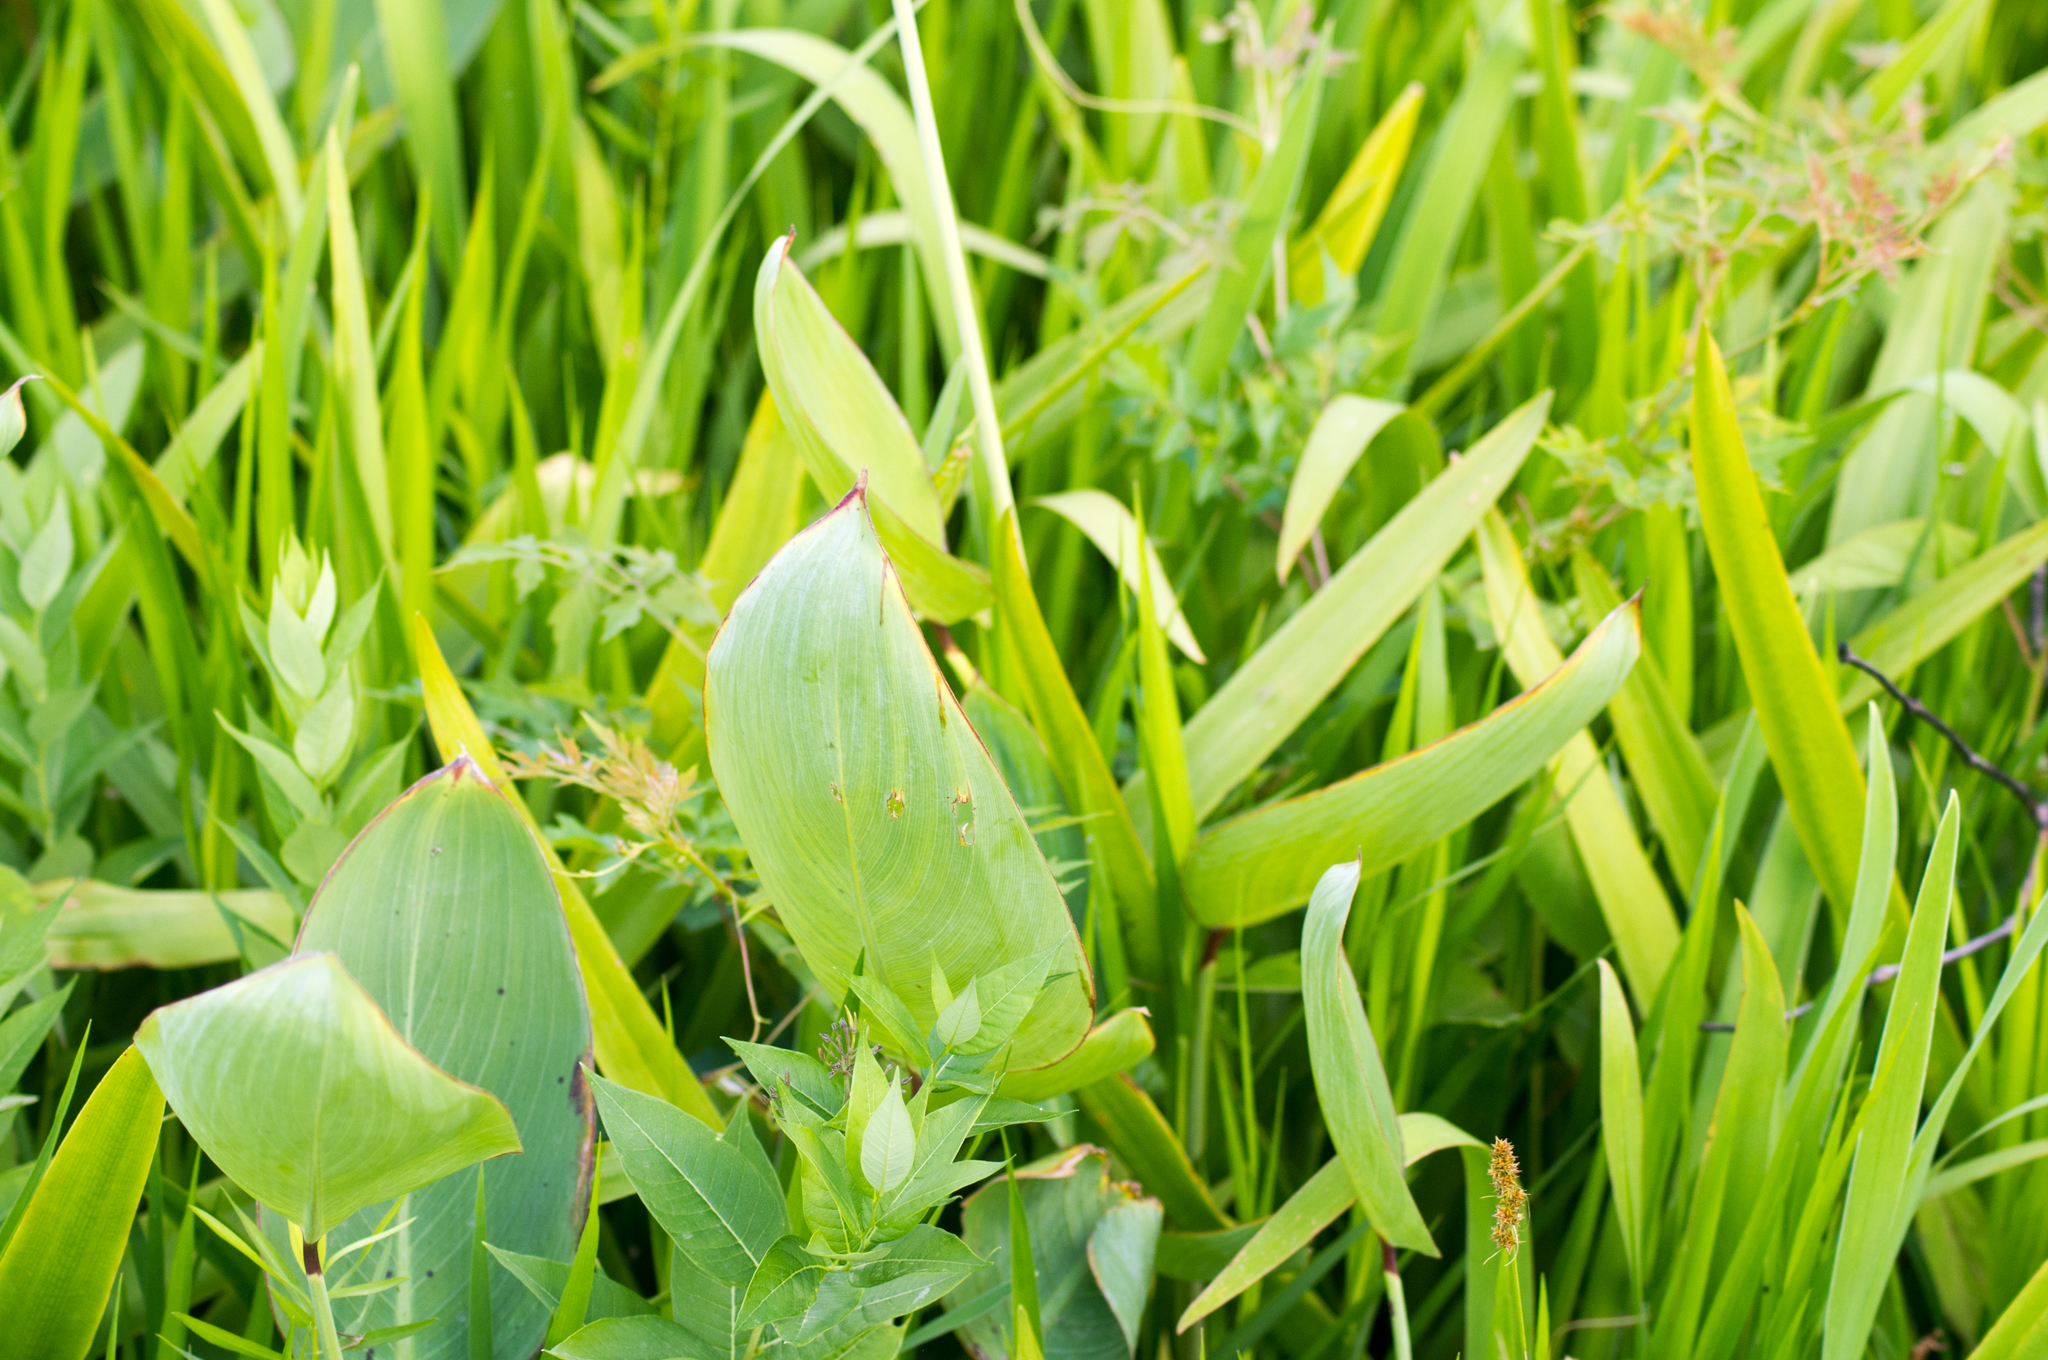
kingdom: Plantae
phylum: Tracheophyta
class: Liliopsida
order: Zingiberales
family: Marantaceae
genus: Thalia
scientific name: Thalia dealbata
